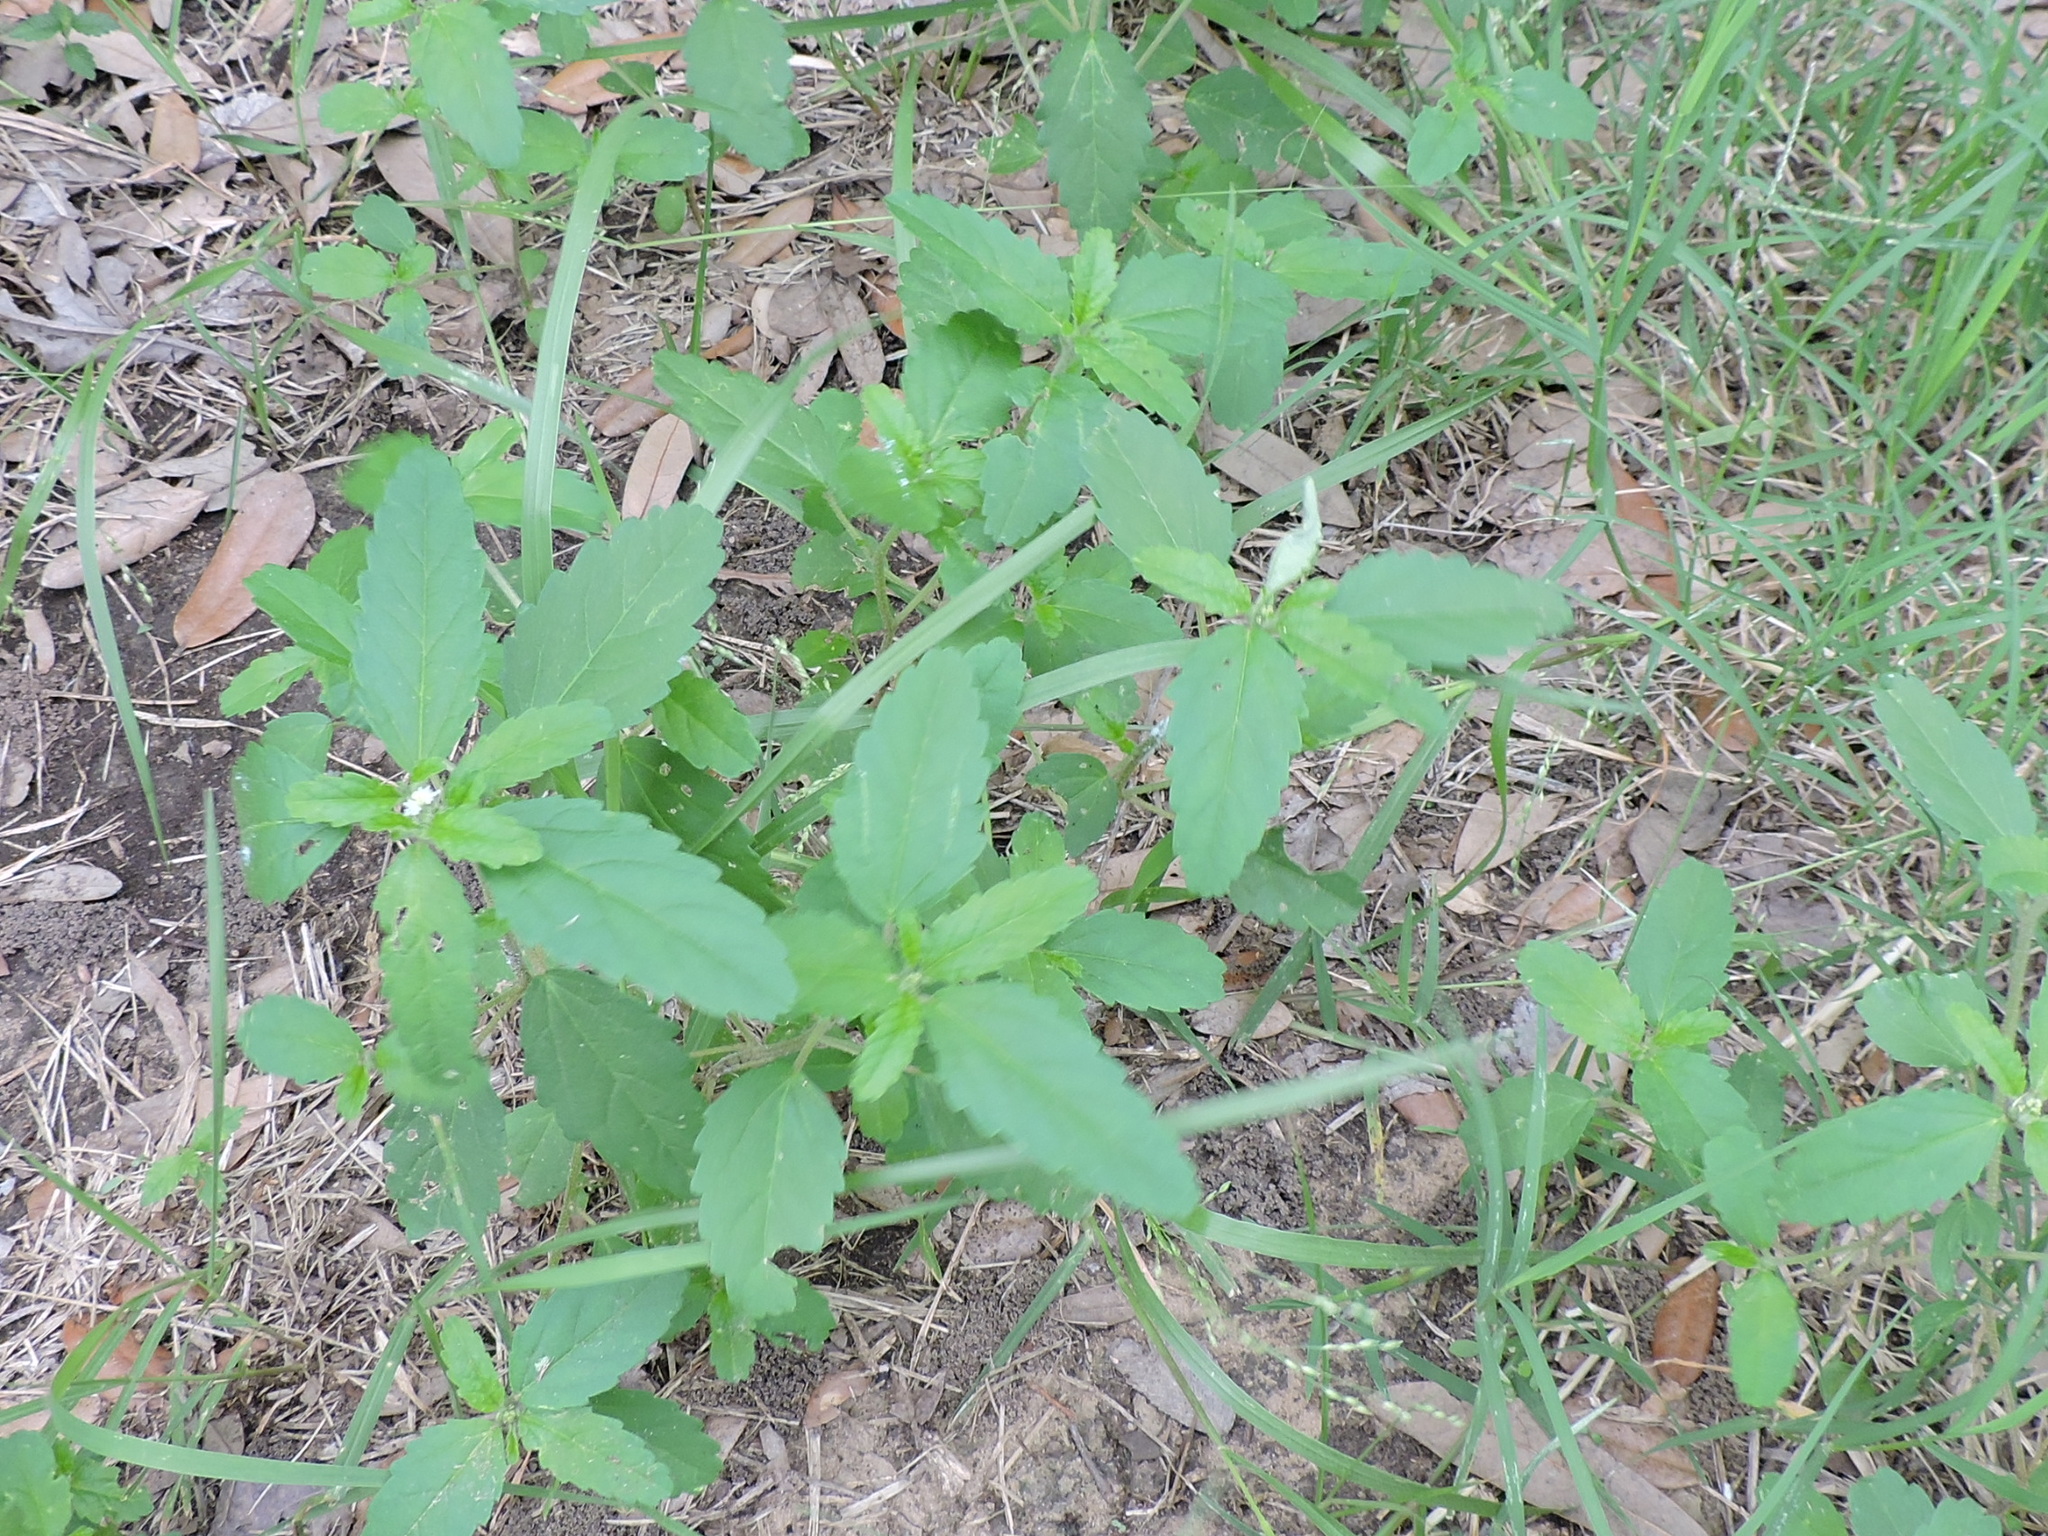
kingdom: Plantae
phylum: Tracheophyta
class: Magnoliopsida
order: Malpighiales
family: Euphorbiaceae
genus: Croton
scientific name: Croton glandulosus
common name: Tropic croton
